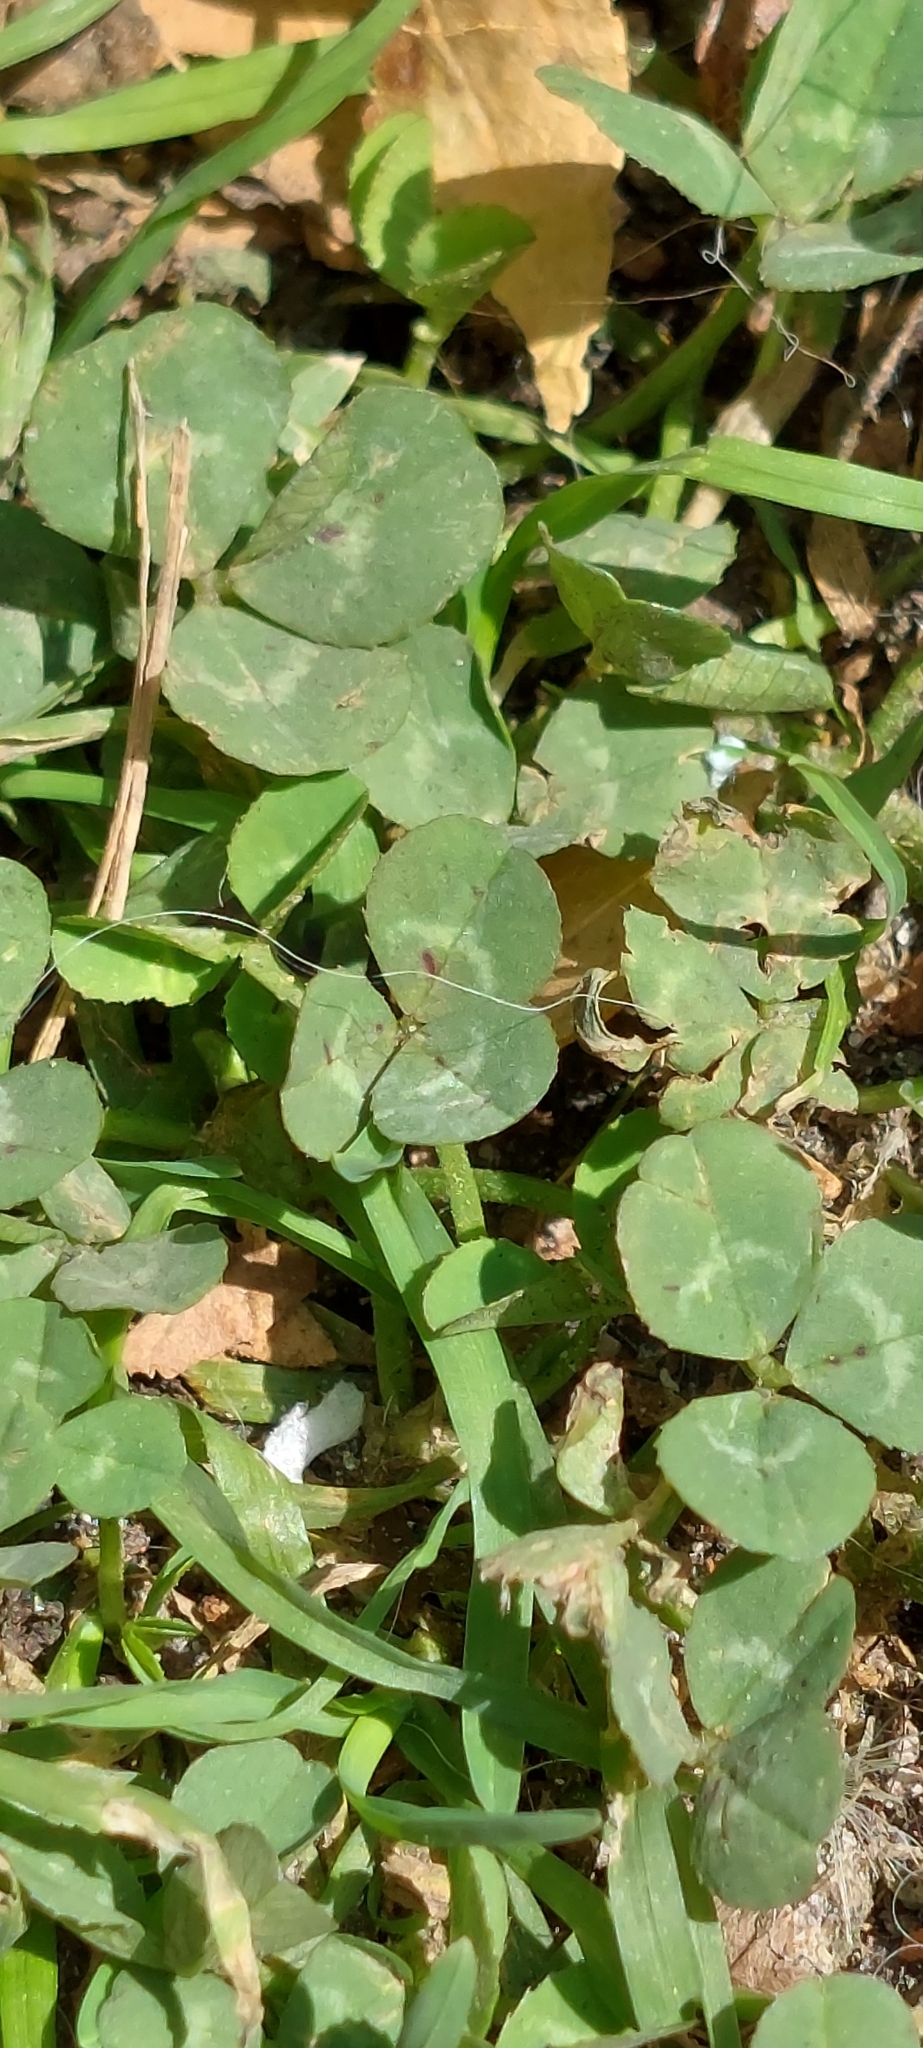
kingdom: Plantae
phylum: Tracheophyta
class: Magnoliopsida
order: Fabales
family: Fabaceae
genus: Trifolium
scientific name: Trifolium repens
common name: White clover
